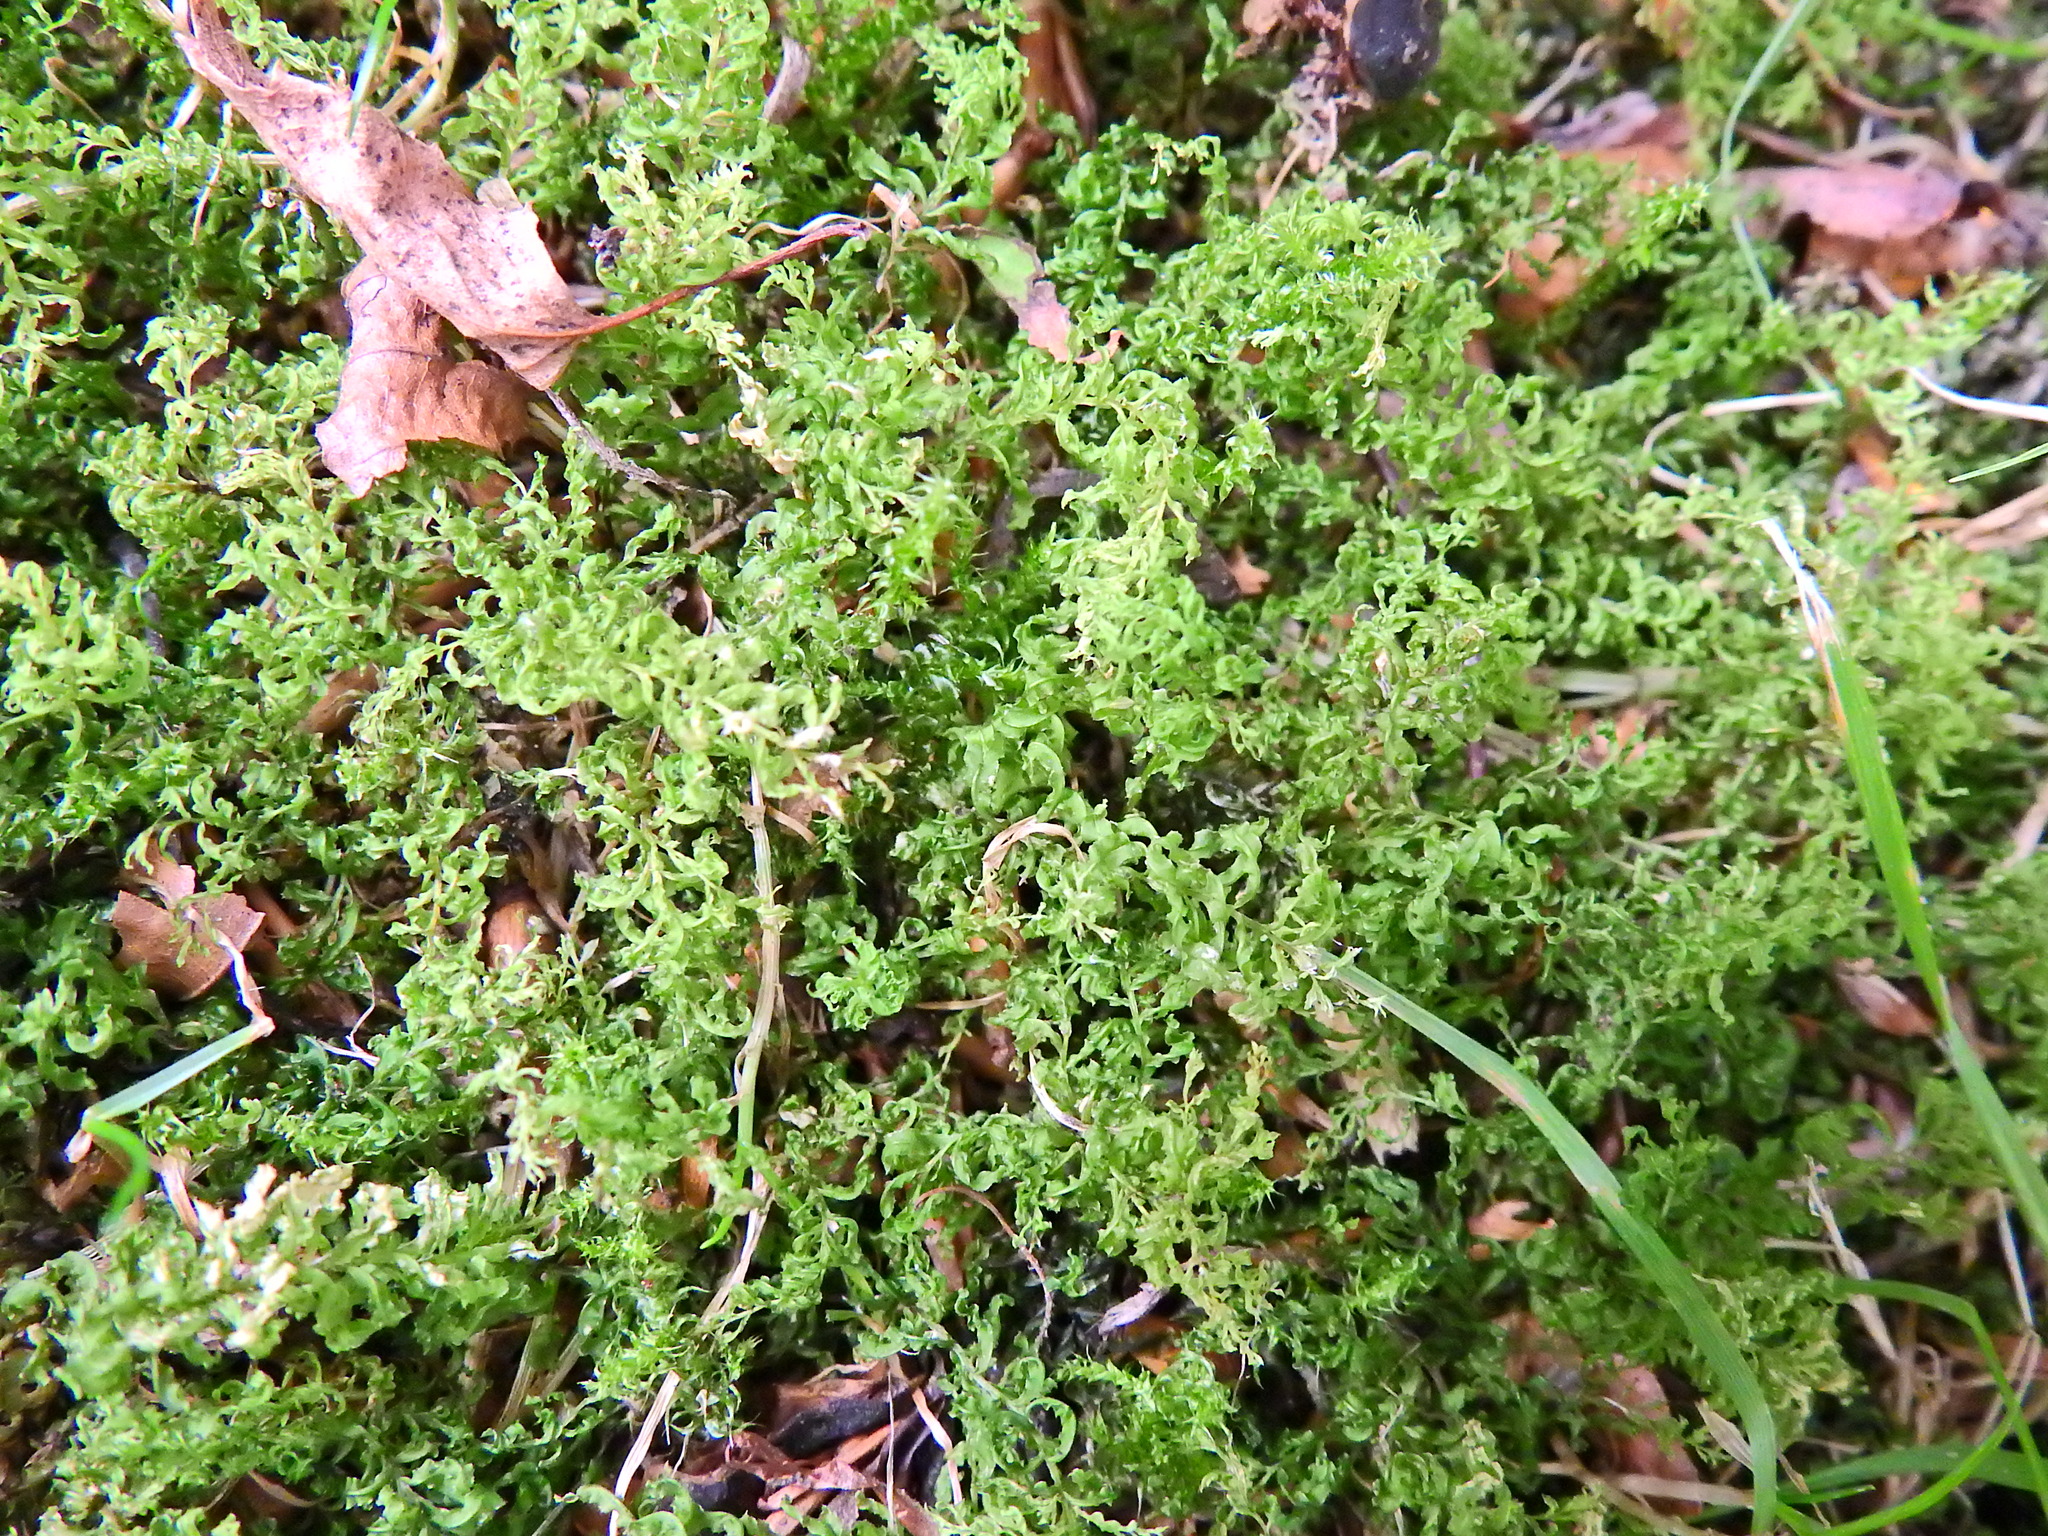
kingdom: Plantae
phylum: Bryophyta
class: Bryopsida
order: Bryales
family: Mniaceae
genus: Plagiomnium
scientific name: Plagiomnium undulatum
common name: Hart's-tongue thyme-moss
